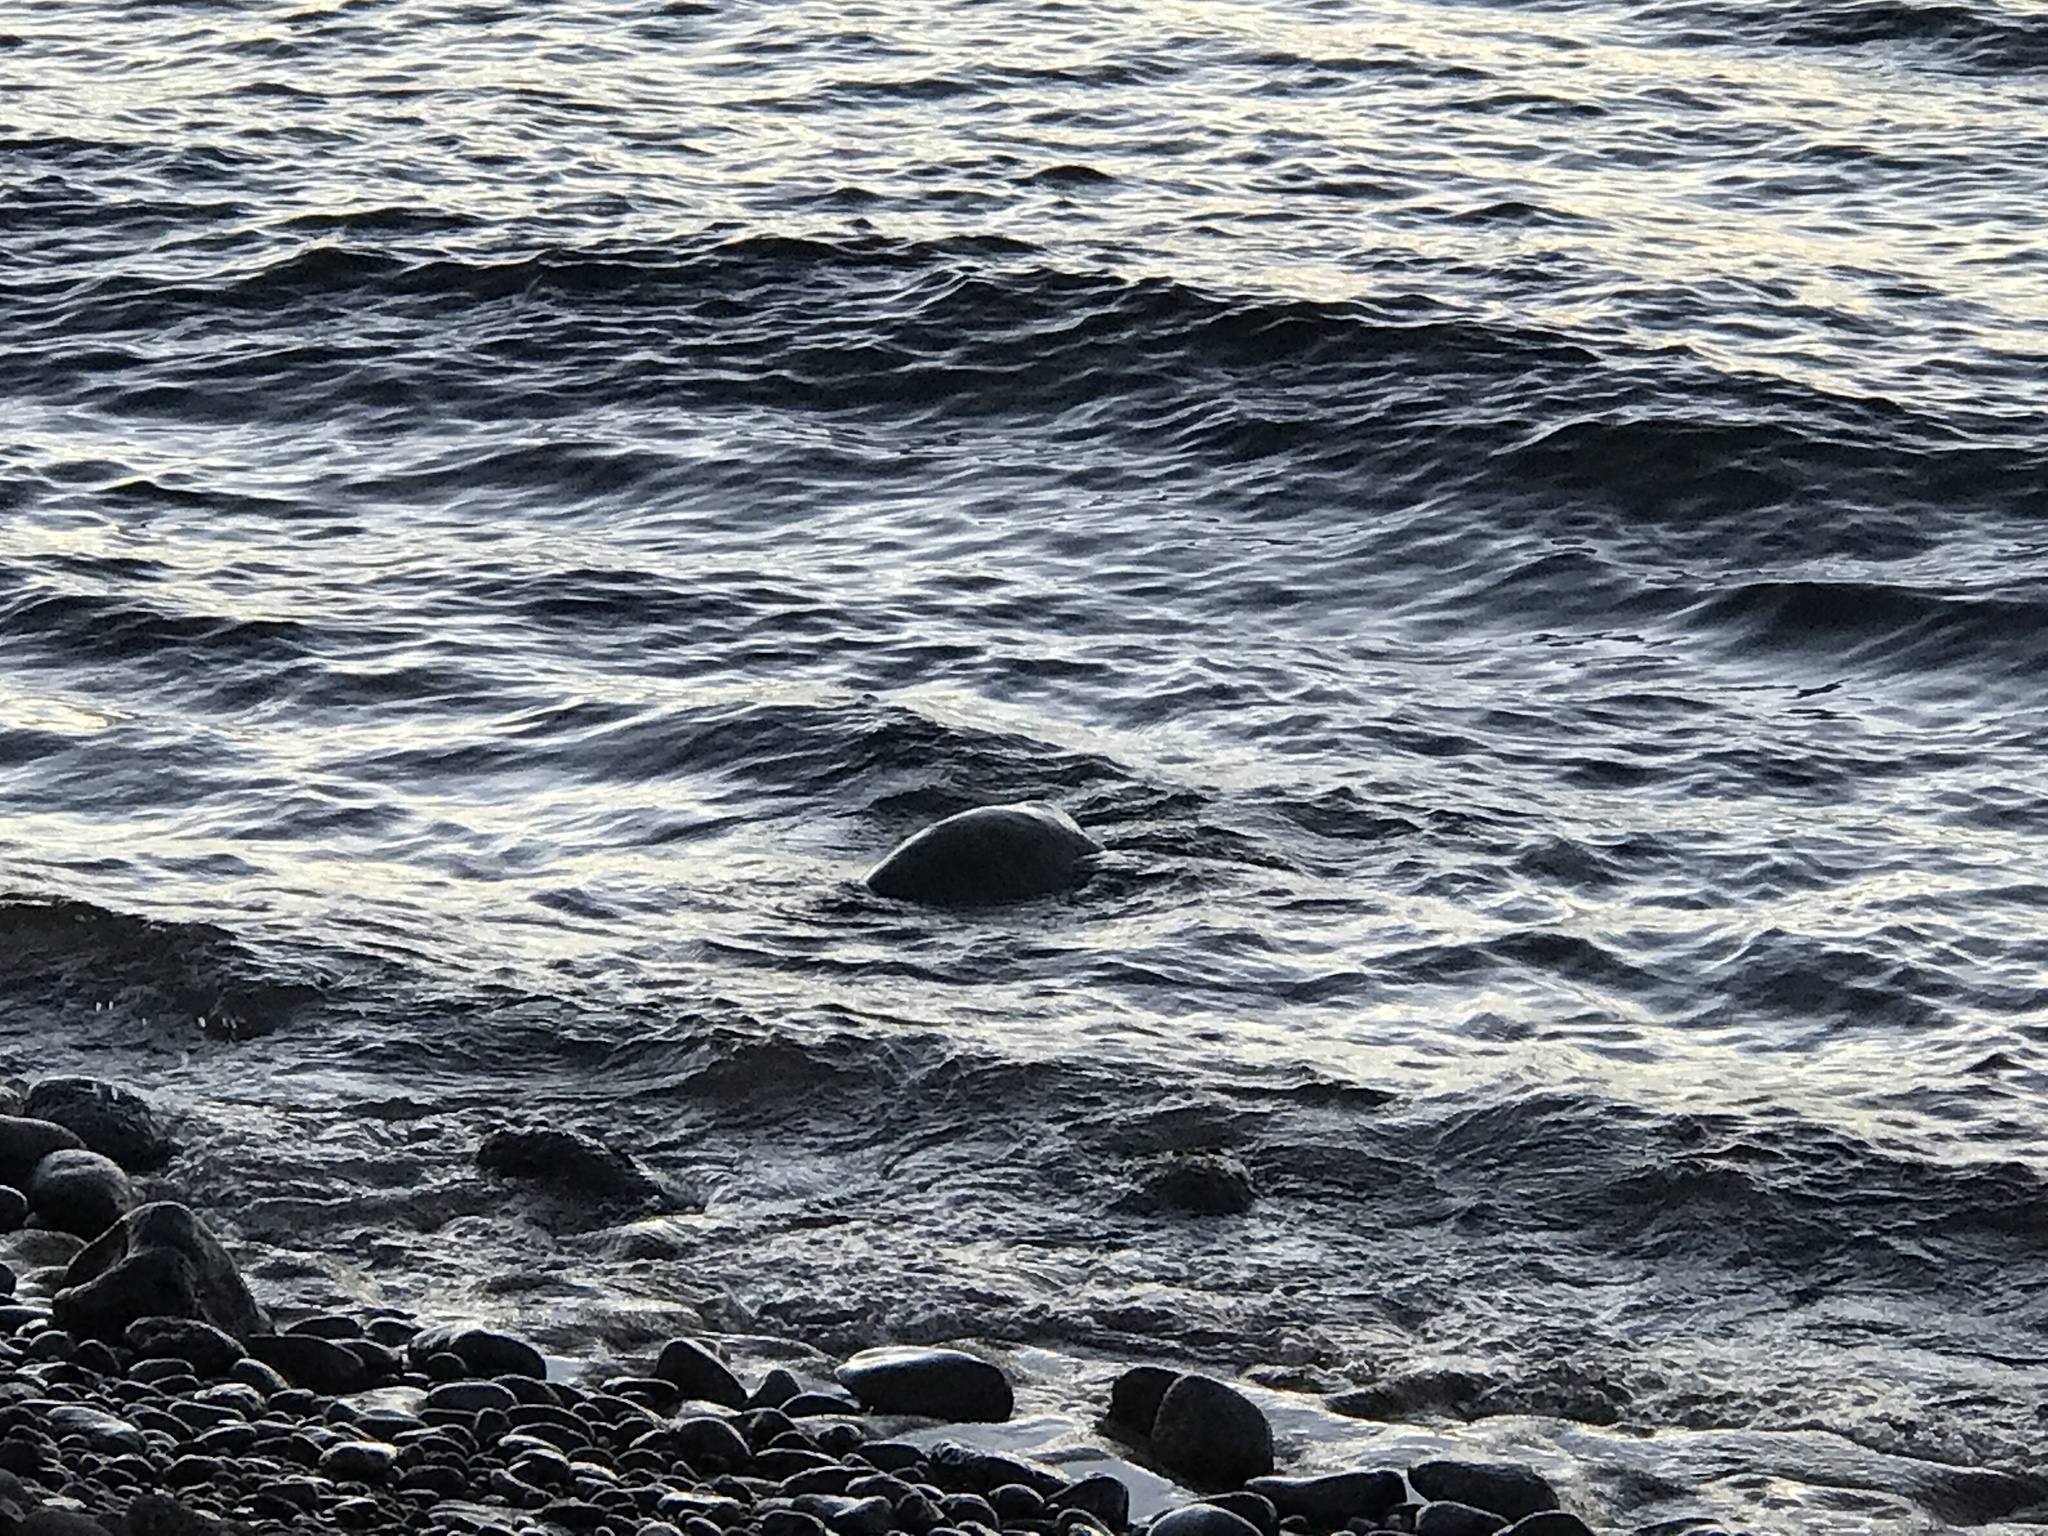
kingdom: Animalia
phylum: Chordata
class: Testudines
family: Cheloniidae
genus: Chelonia
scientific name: Chelonia mydas
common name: Green turtle
